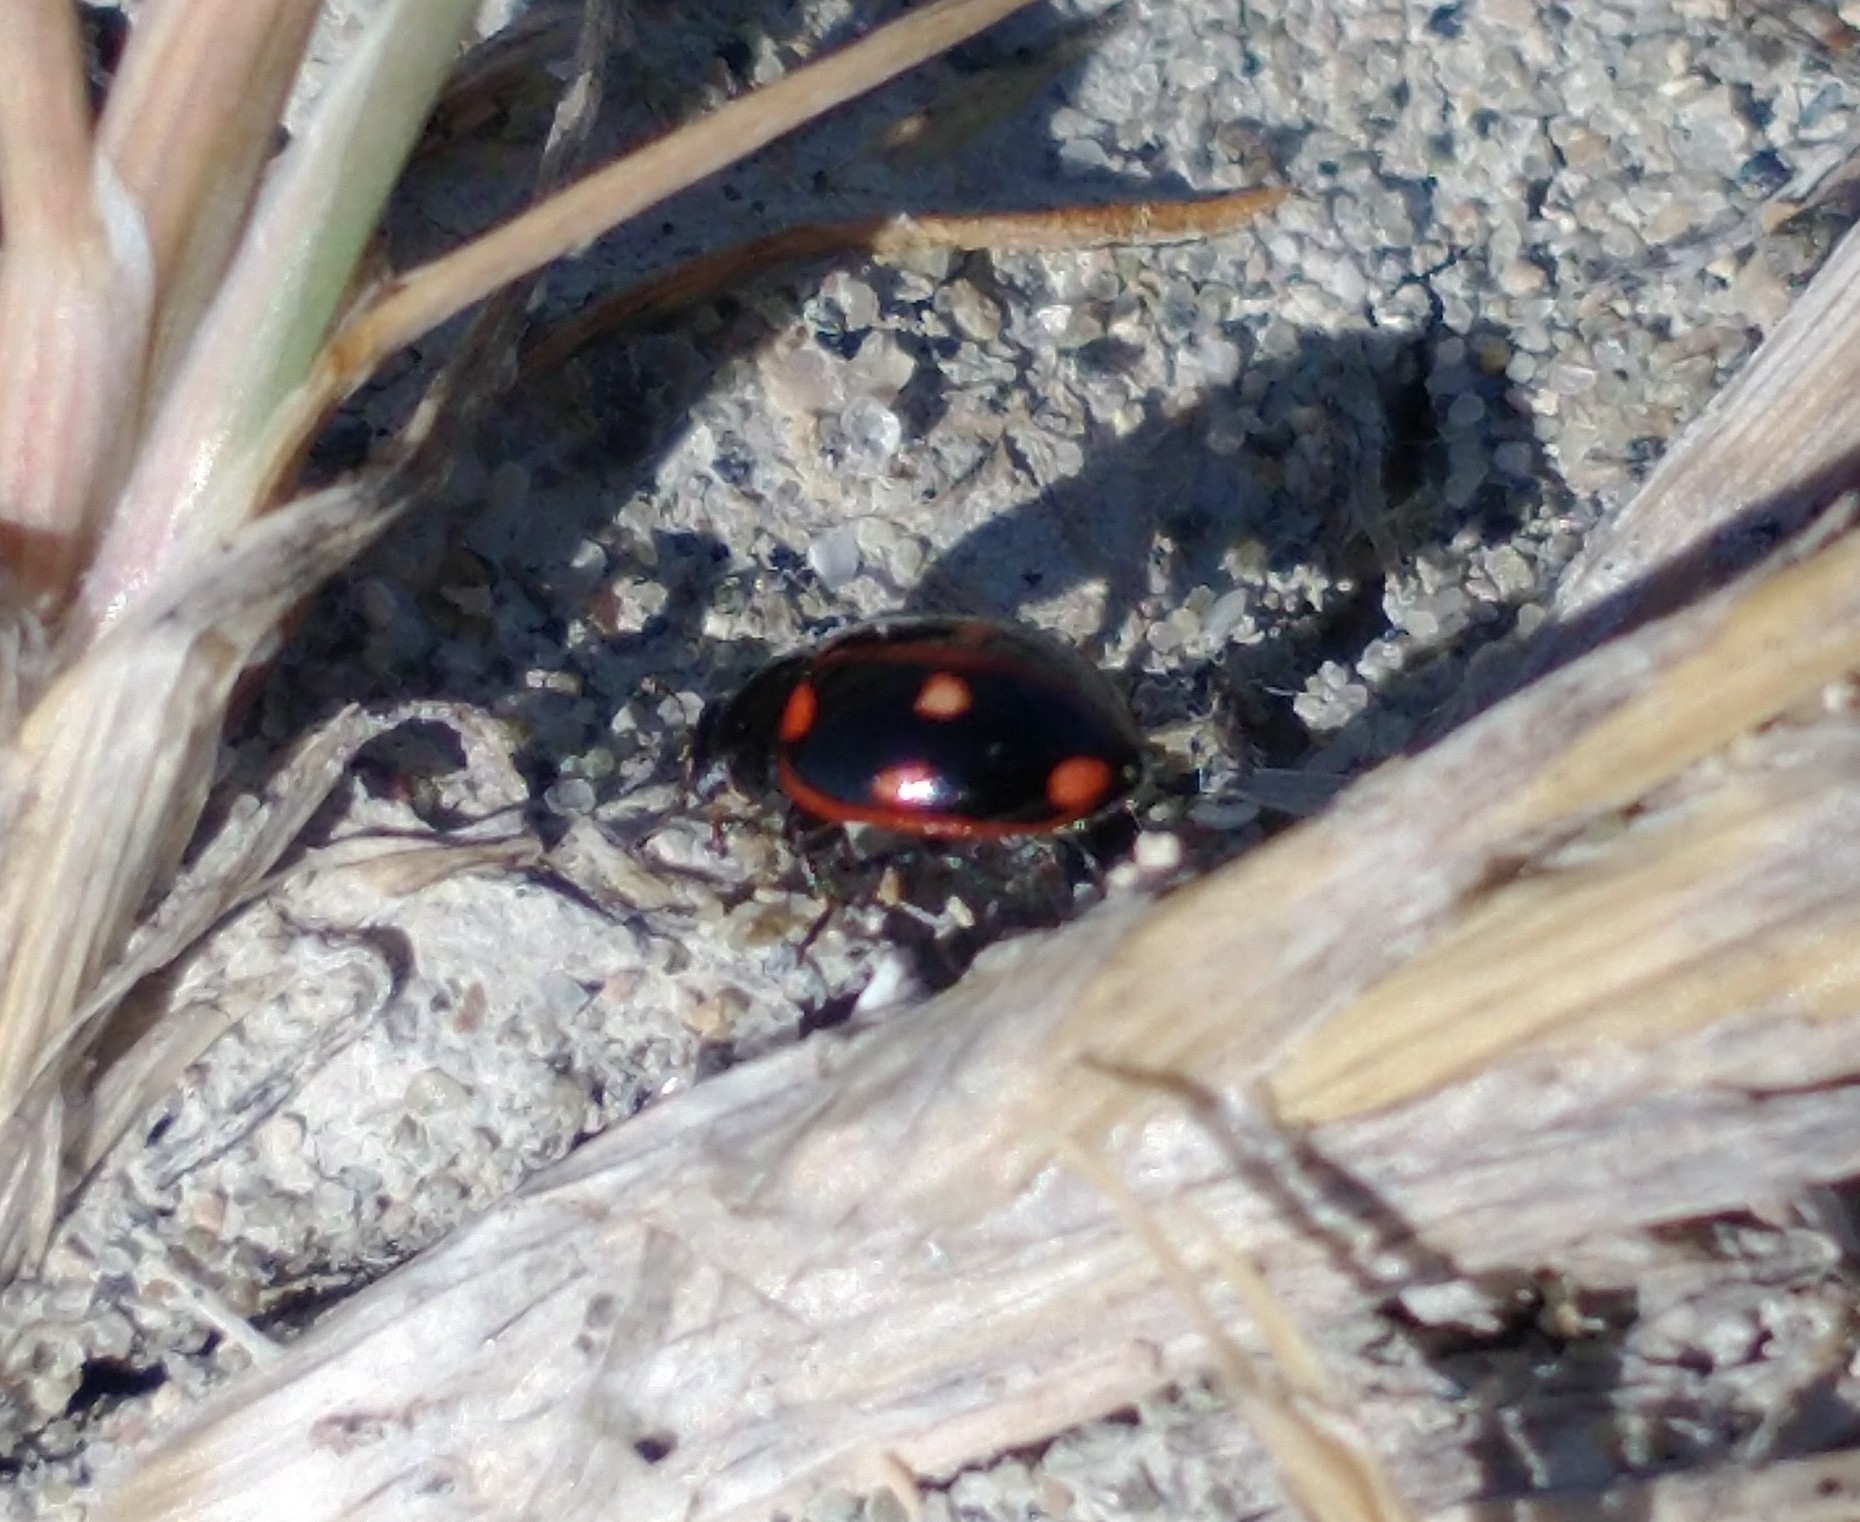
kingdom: Animalia
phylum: Arthropoda
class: Insecta
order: Coleoptera
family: Coccinellidae
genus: Eriopis
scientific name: Eriopis magellanica
